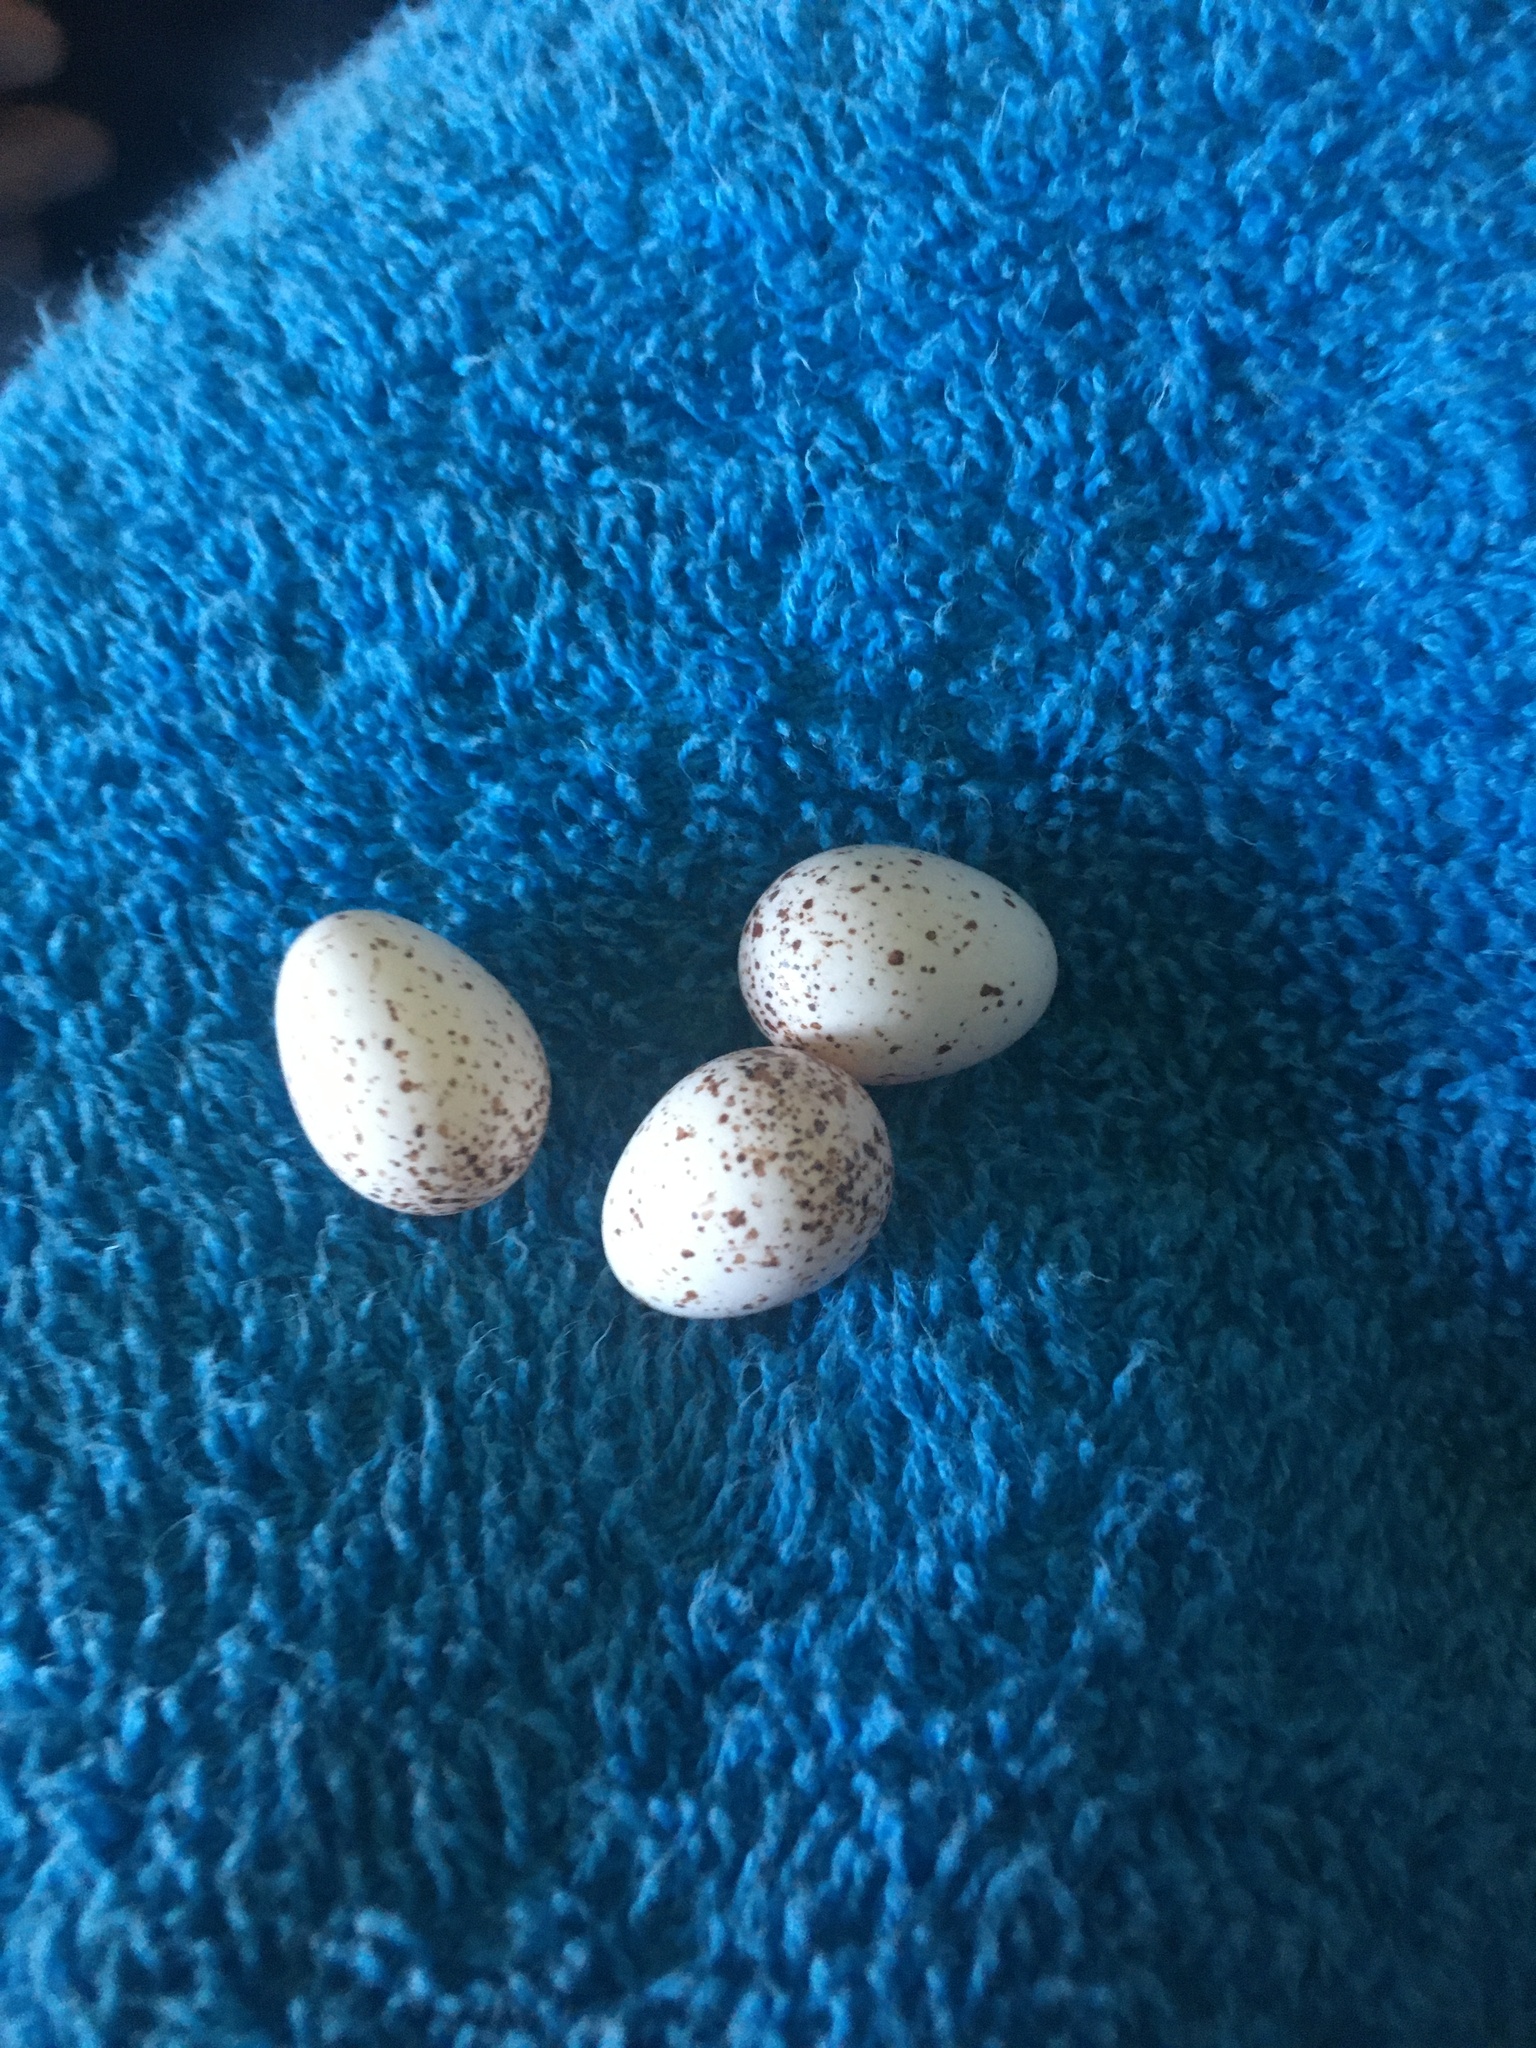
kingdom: Animalia
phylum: Chordata
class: Aves
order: Passeriformes
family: Hirundinidae
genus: Hirundo
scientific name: Hirundo neoxena
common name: Welcome swallow
